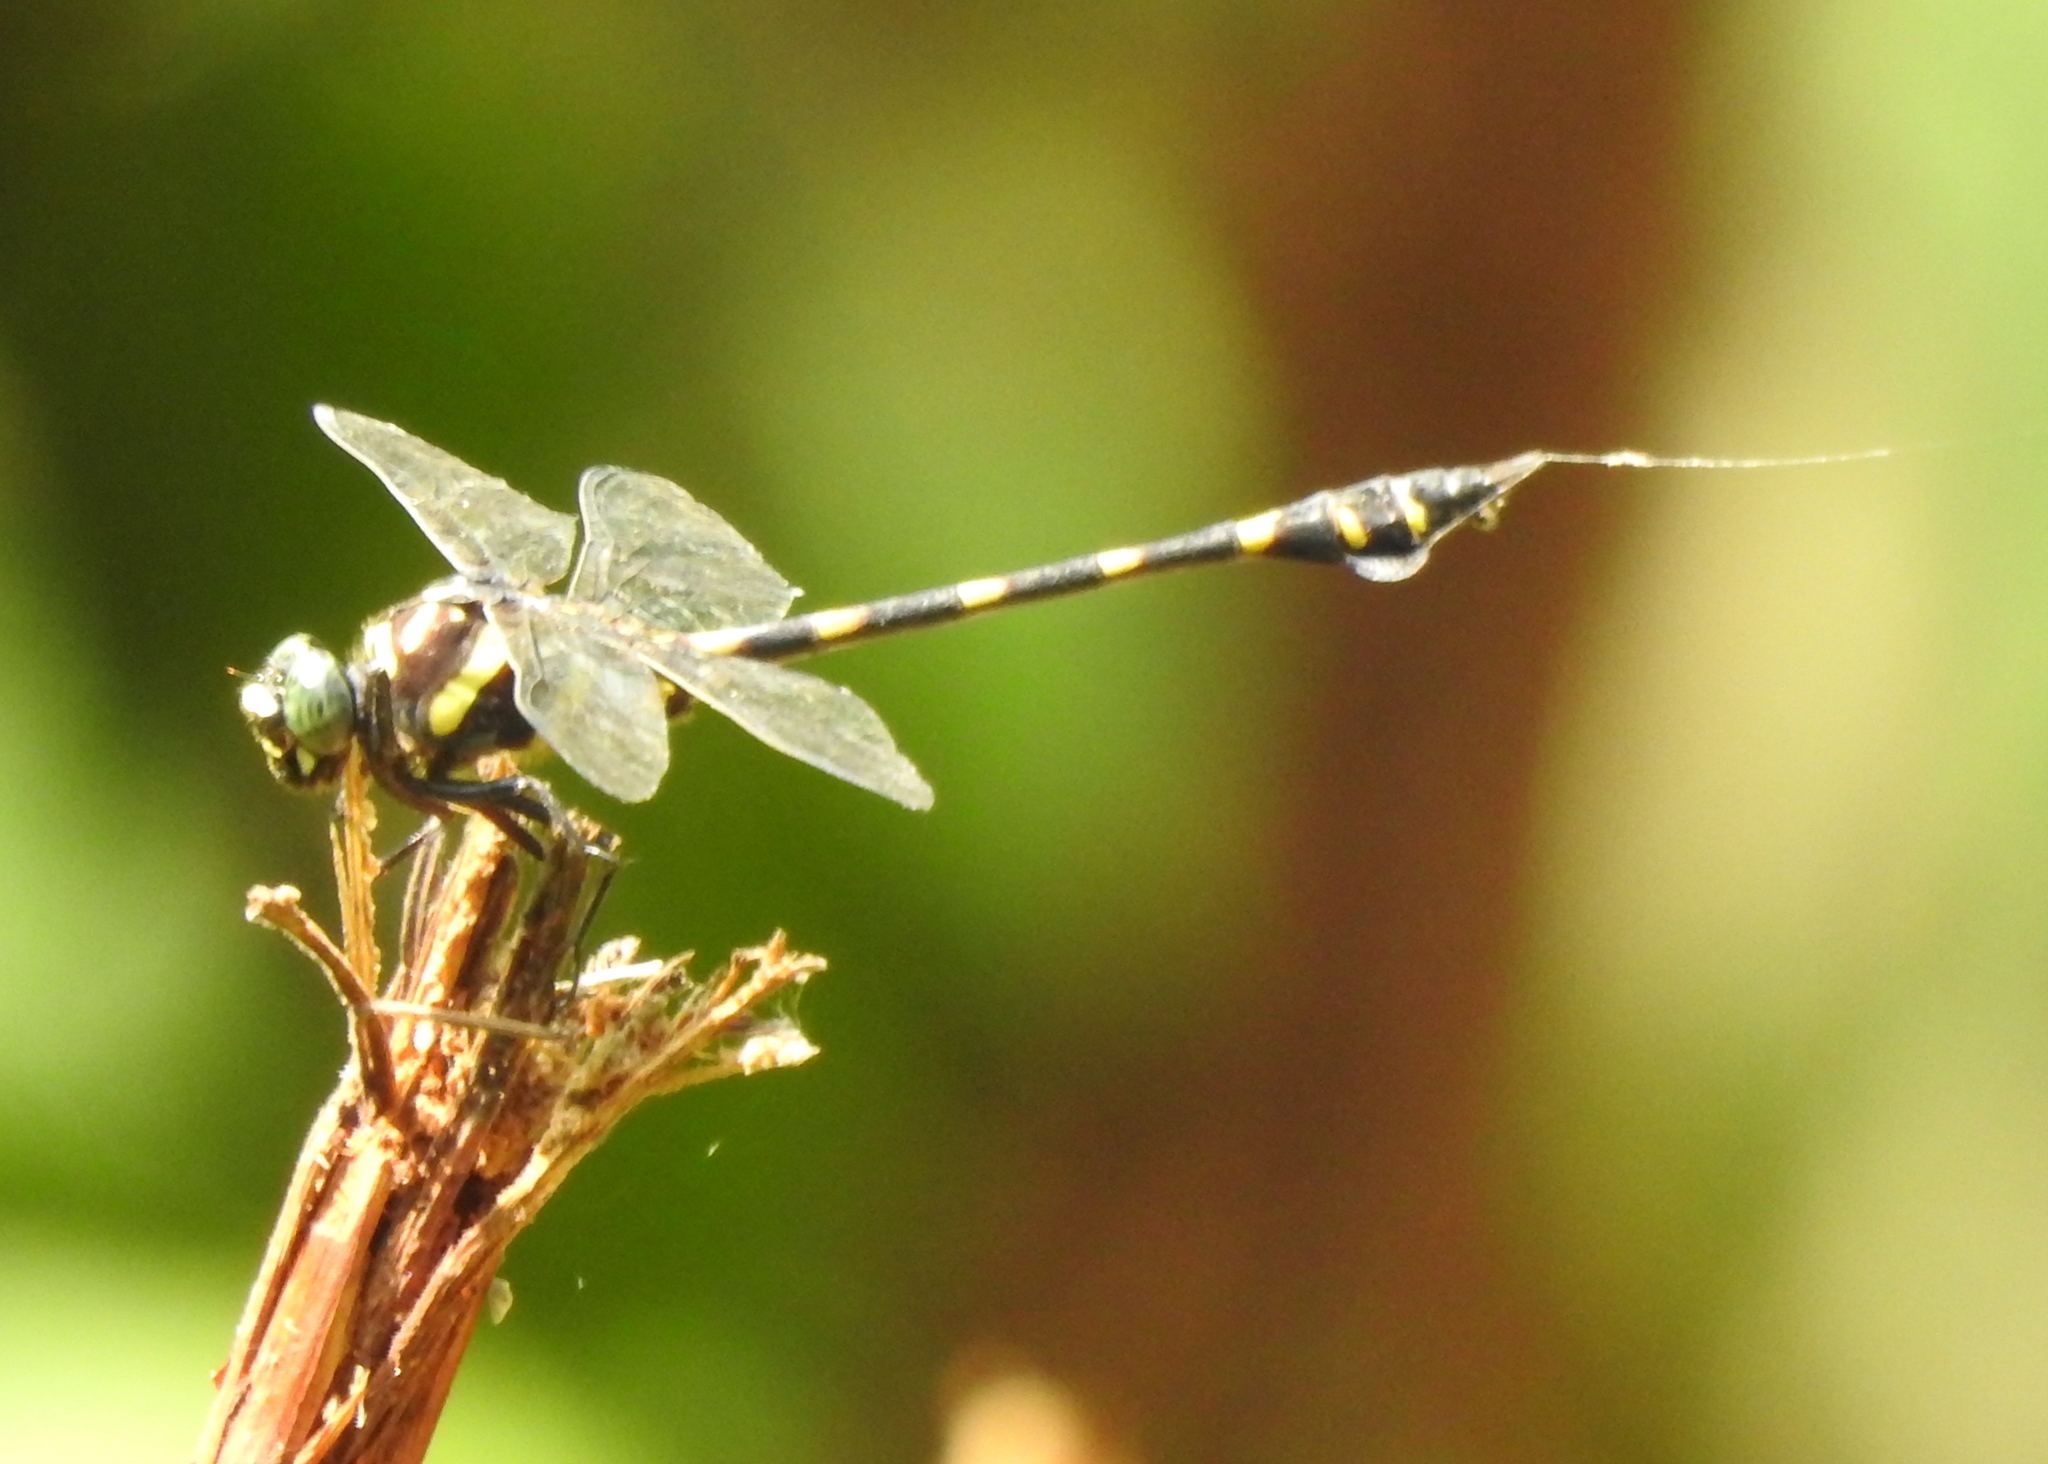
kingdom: Animalia
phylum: Arthropoda
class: Insecta
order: Odonata
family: Gomphidae
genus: Ictinogomphus
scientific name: Ictinogomphus decoratus
